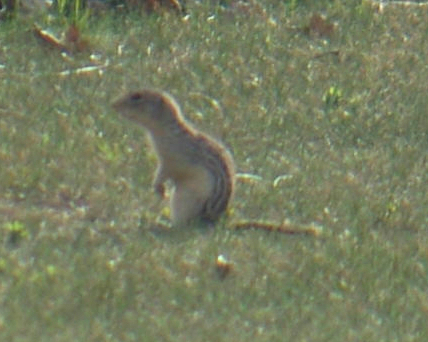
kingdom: Animalia
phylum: Chordata
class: Mammalia
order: Rodentia
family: Sciuridae
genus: Ictidomys
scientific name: Ictidomys tridecemlineatus
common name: Thirteen-lined ground squirrel
